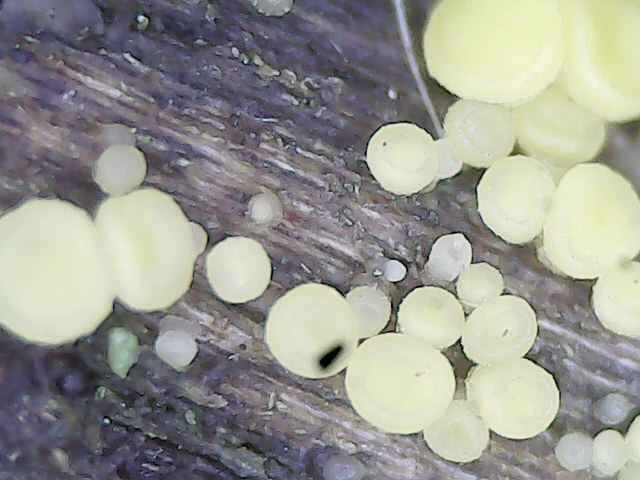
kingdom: Fungi
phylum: Ascomycota
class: Leotiomycetes
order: Helotiales
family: Pezizellaceae
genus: Calycina
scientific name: Calycina citrina
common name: Yellow fairy cups
